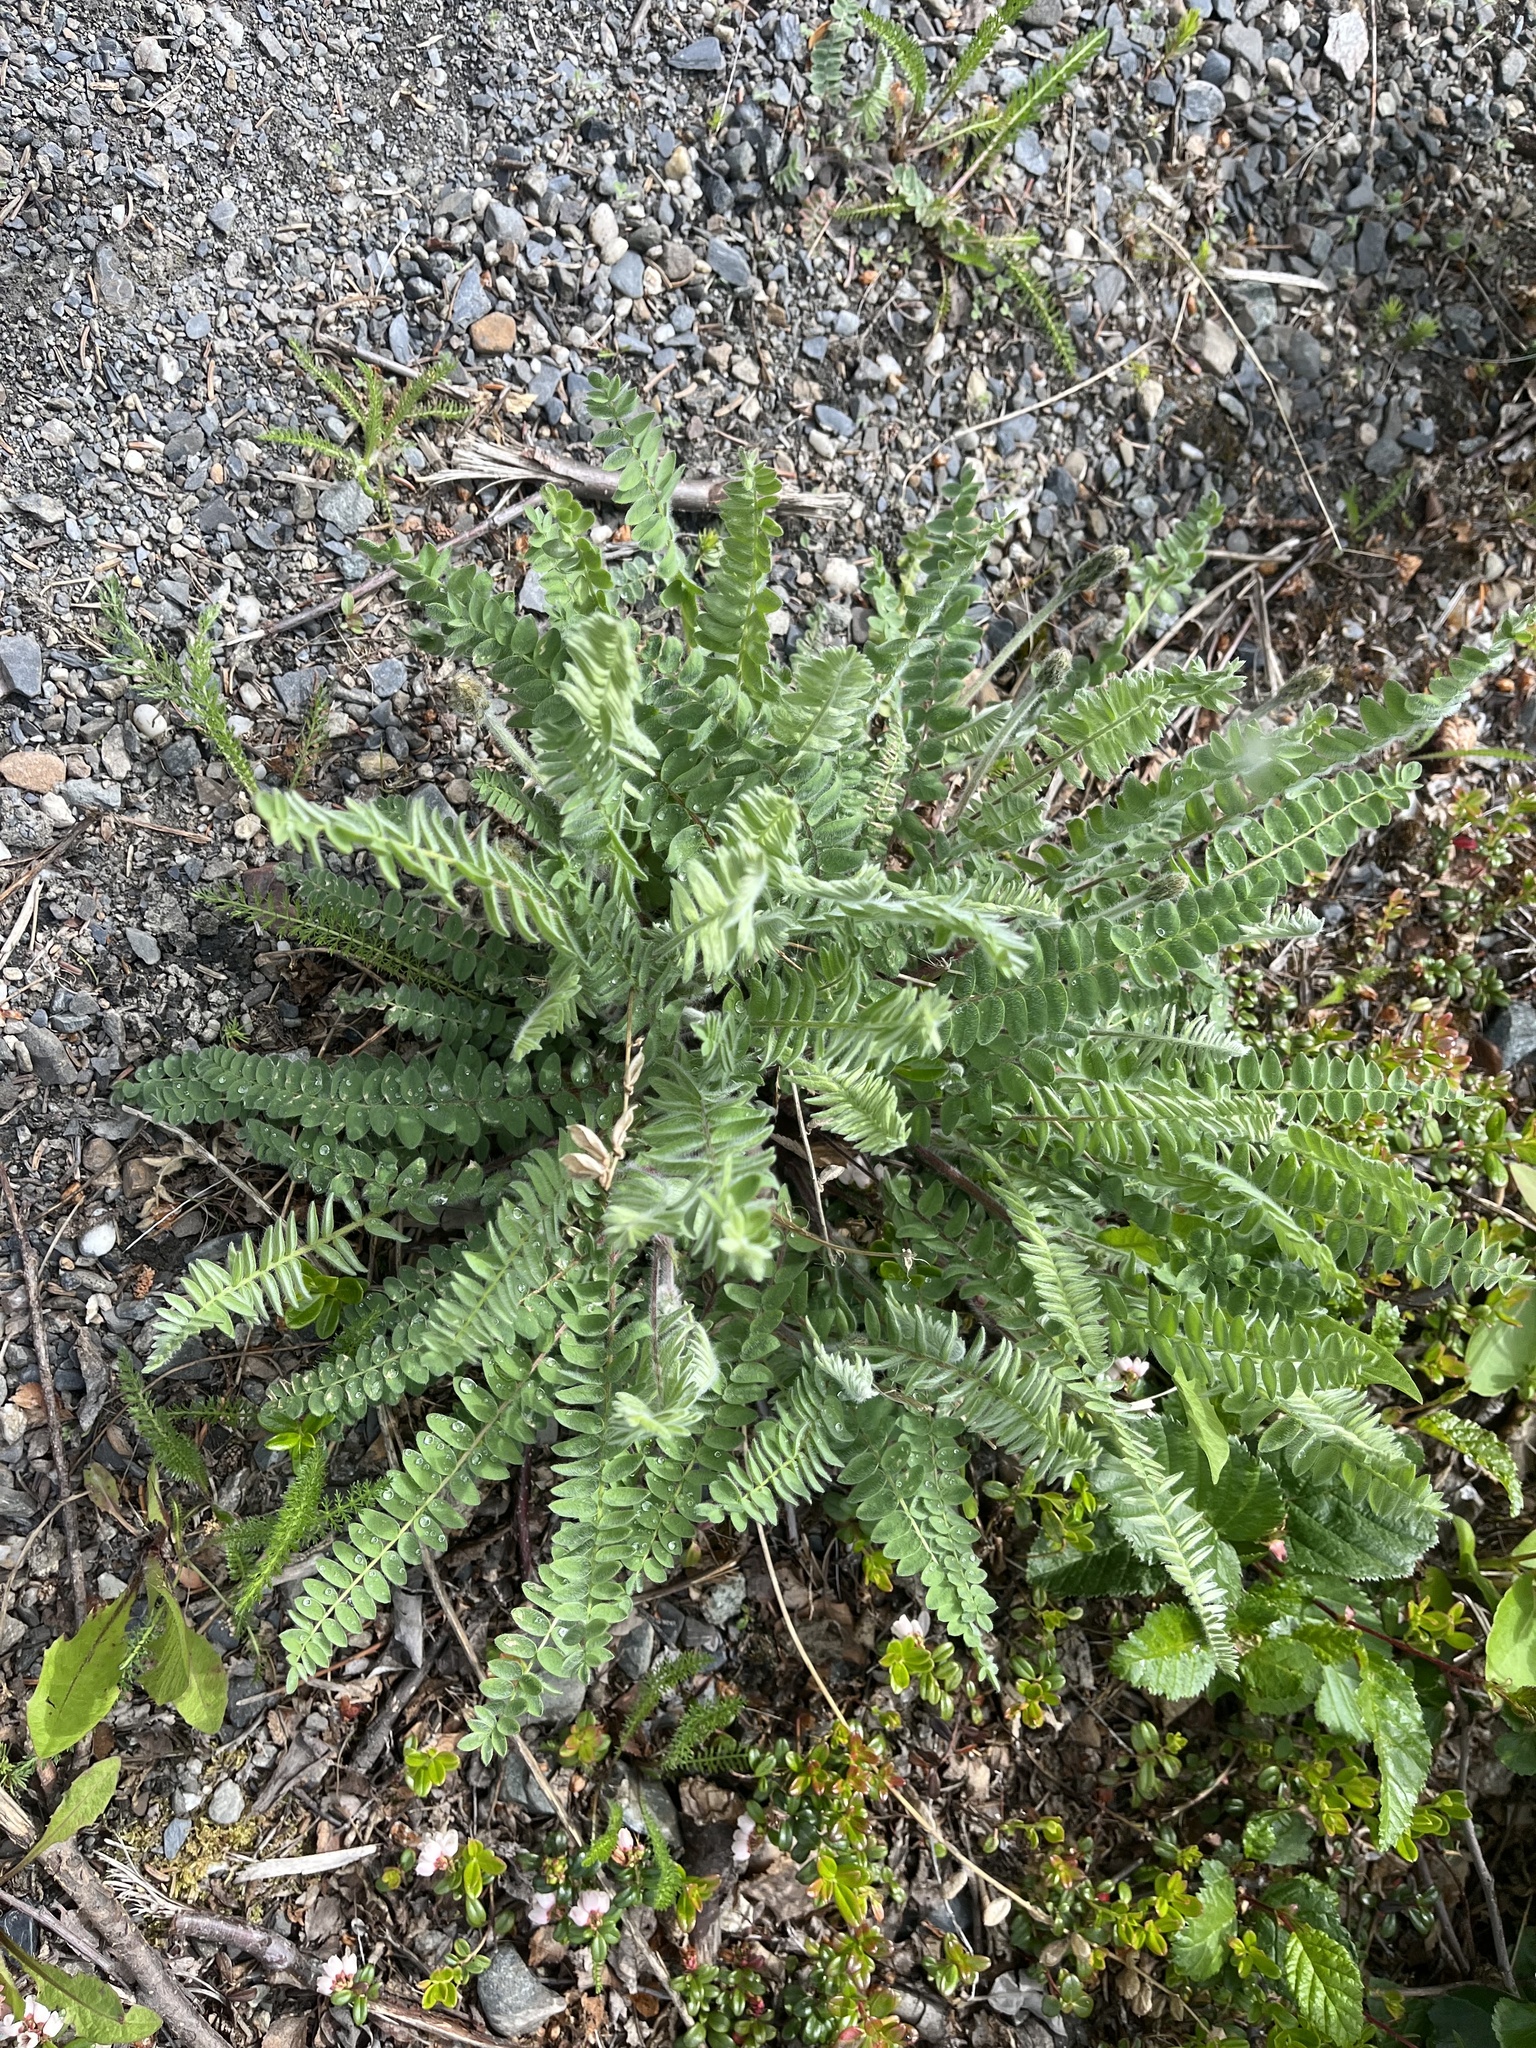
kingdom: Plantae
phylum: Tracheophyta
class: Magnoliopsida
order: Fabales
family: Fabaceae
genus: Oxytropis
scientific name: Oxytropis deflexa
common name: Stemmed oxytrope
